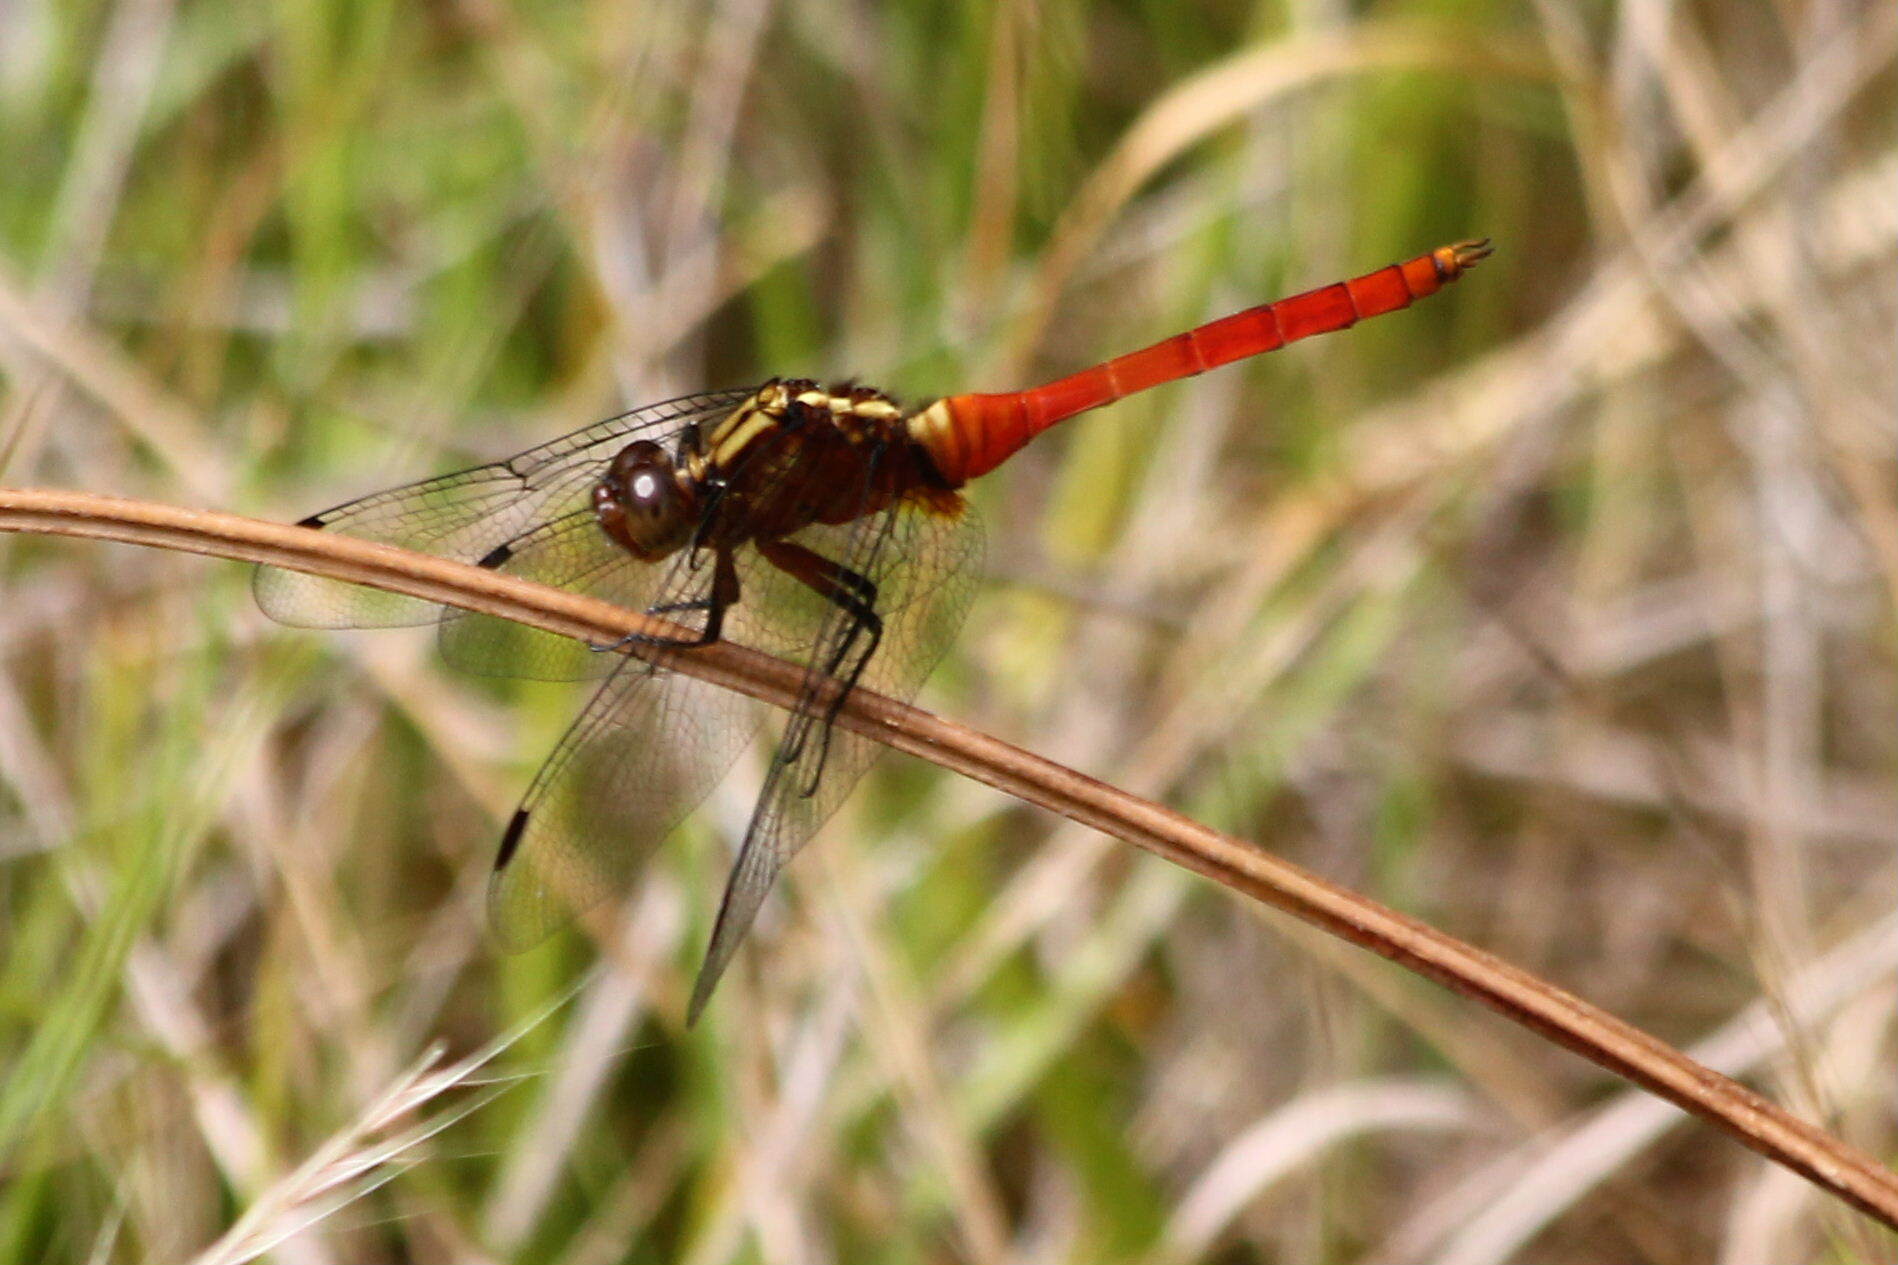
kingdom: Animalia
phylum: Arthropoda
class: Insecta
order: Odonata
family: Libellulidae
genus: Orthetrum
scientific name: Orthetrum villosovittatum
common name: Firery skimmer
